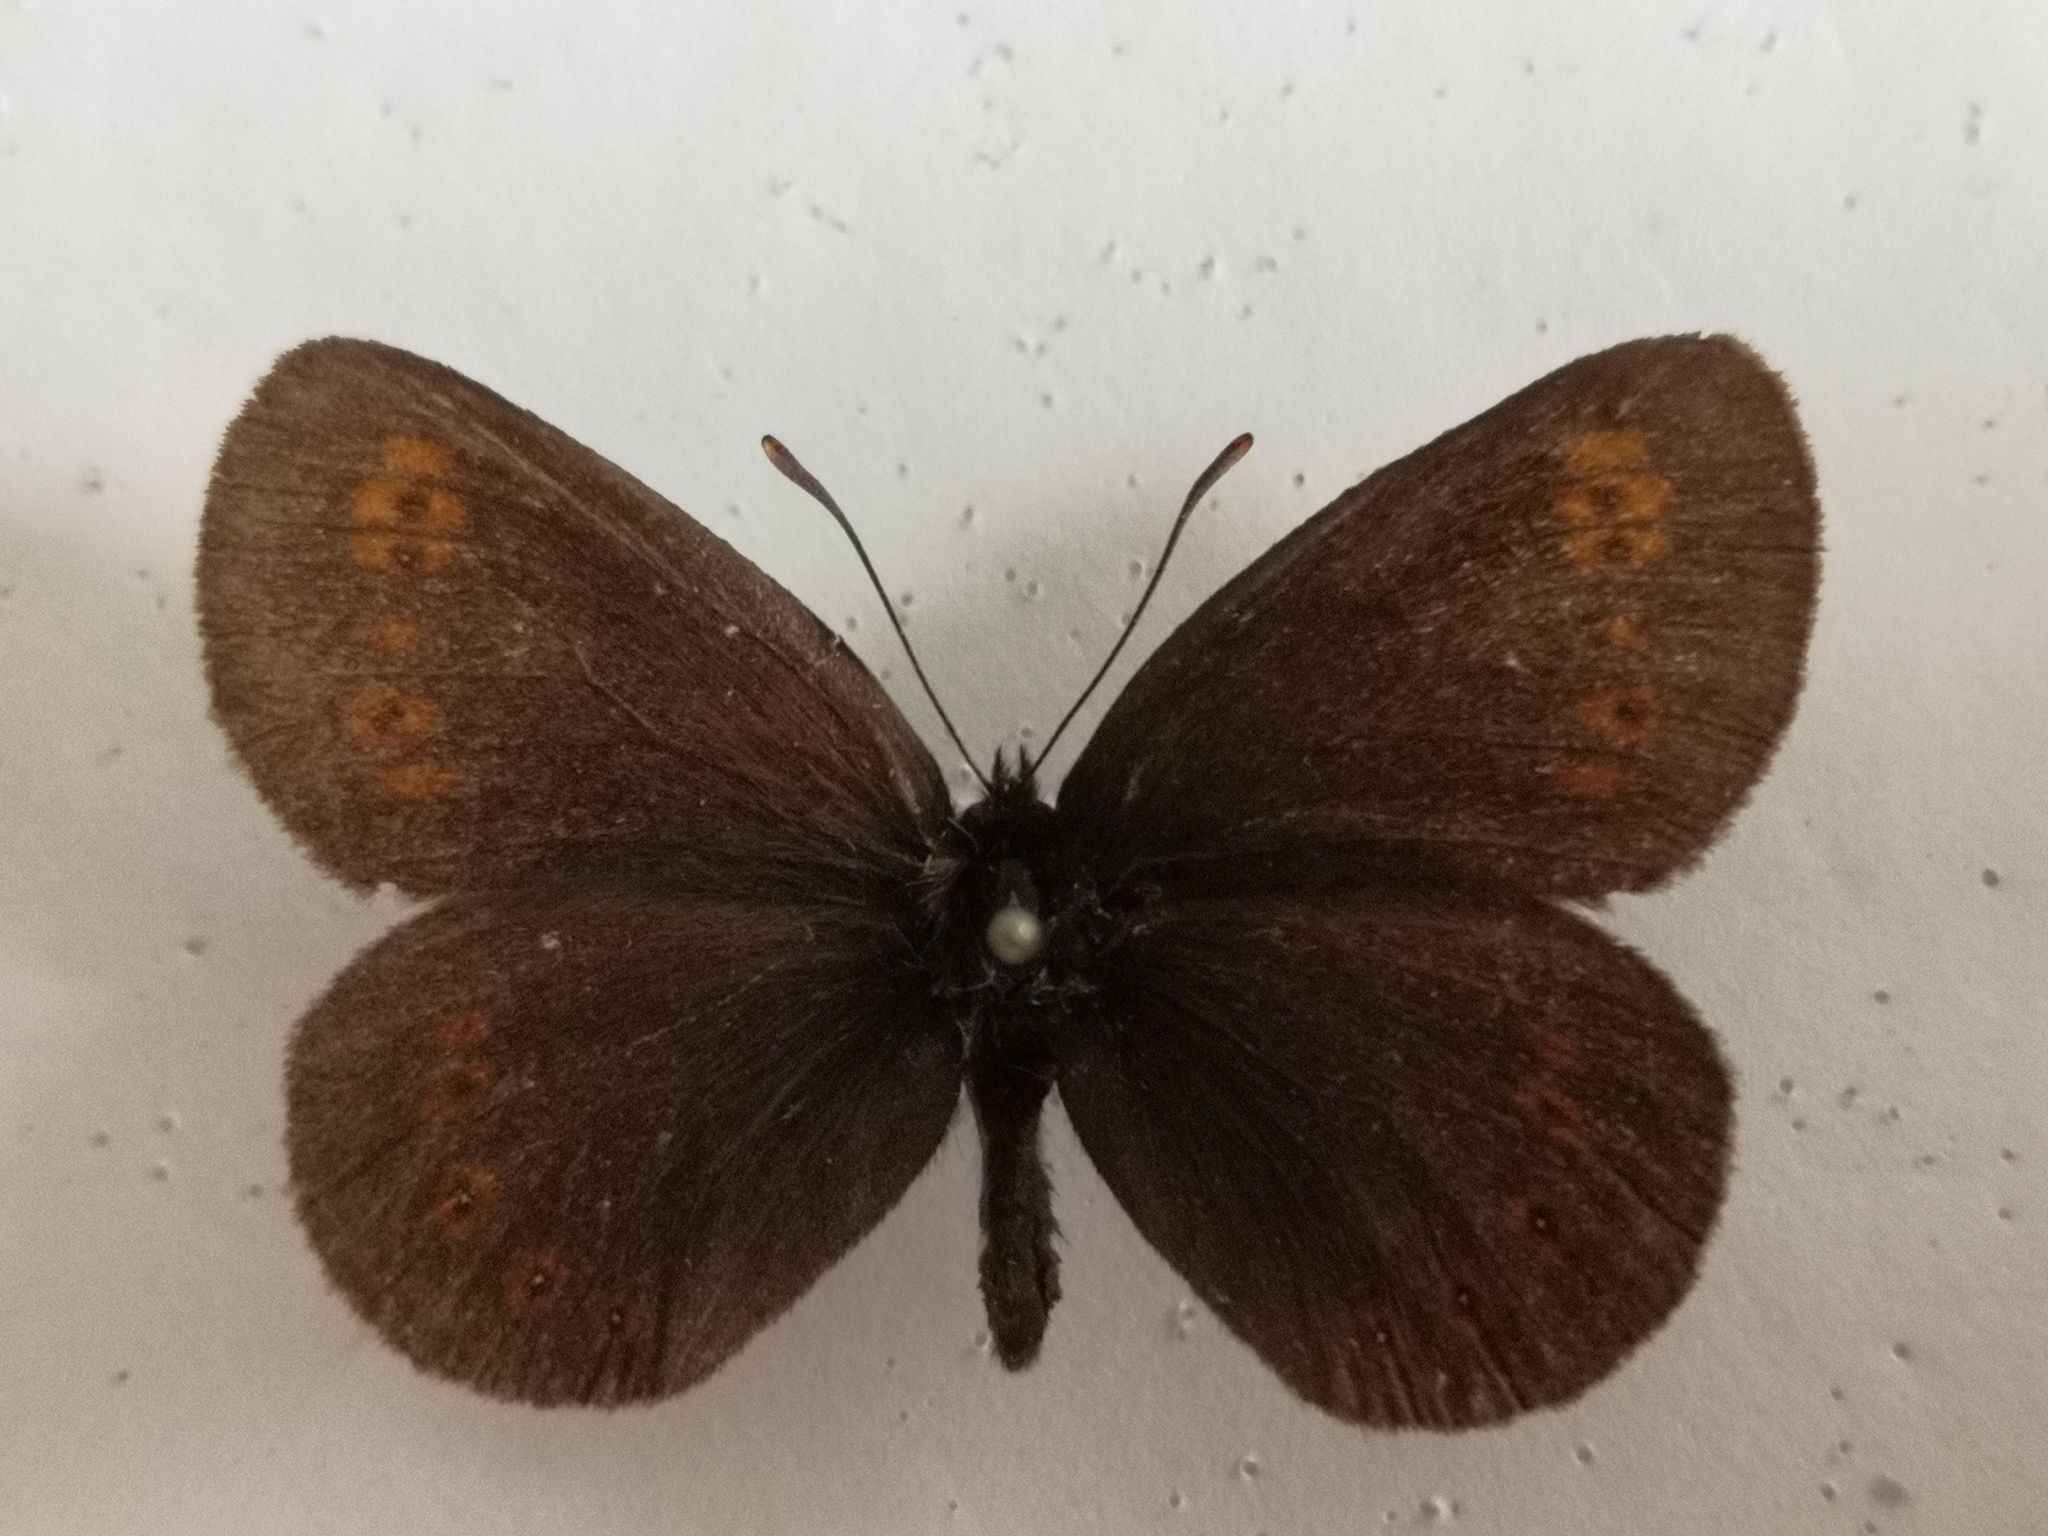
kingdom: Animalia
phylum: Arthropoda
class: Insecta
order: Lepidoptera
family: Nymphalidae
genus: Erebia
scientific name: Erebia alberganus
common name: Almond-eyed ringlet
